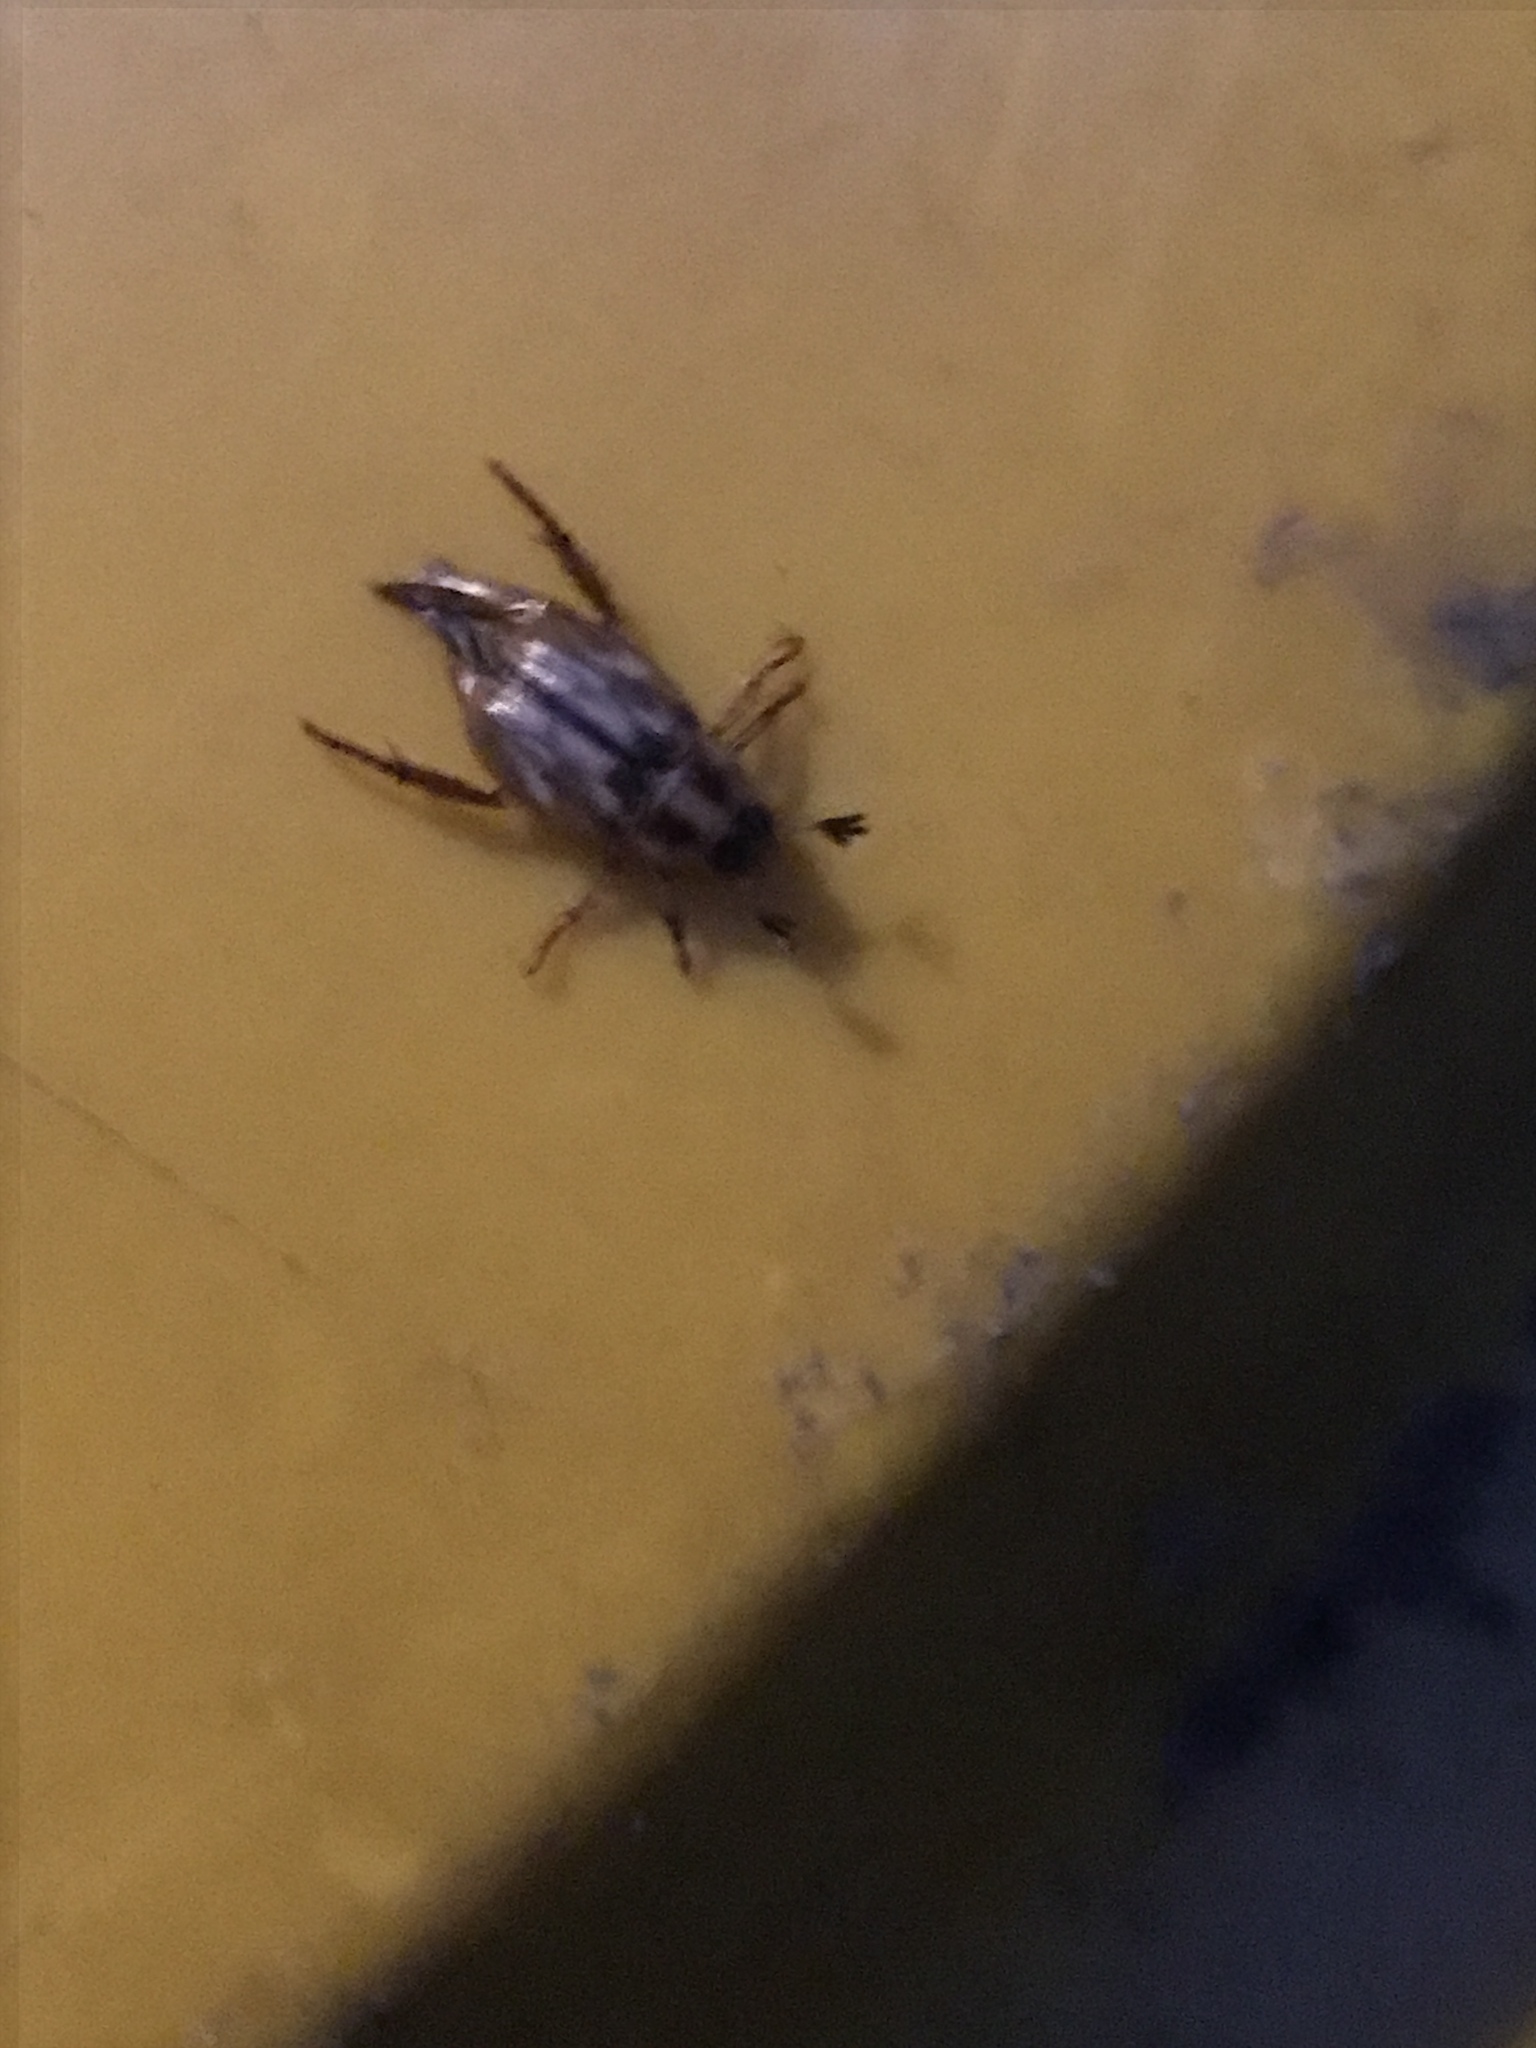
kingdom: Animalia
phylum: Arthropoda
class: Insecta
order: Coleoptera
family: Scarabaeidae
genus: Exomala
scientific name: Exomala orientalis
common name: Oriental beetle
